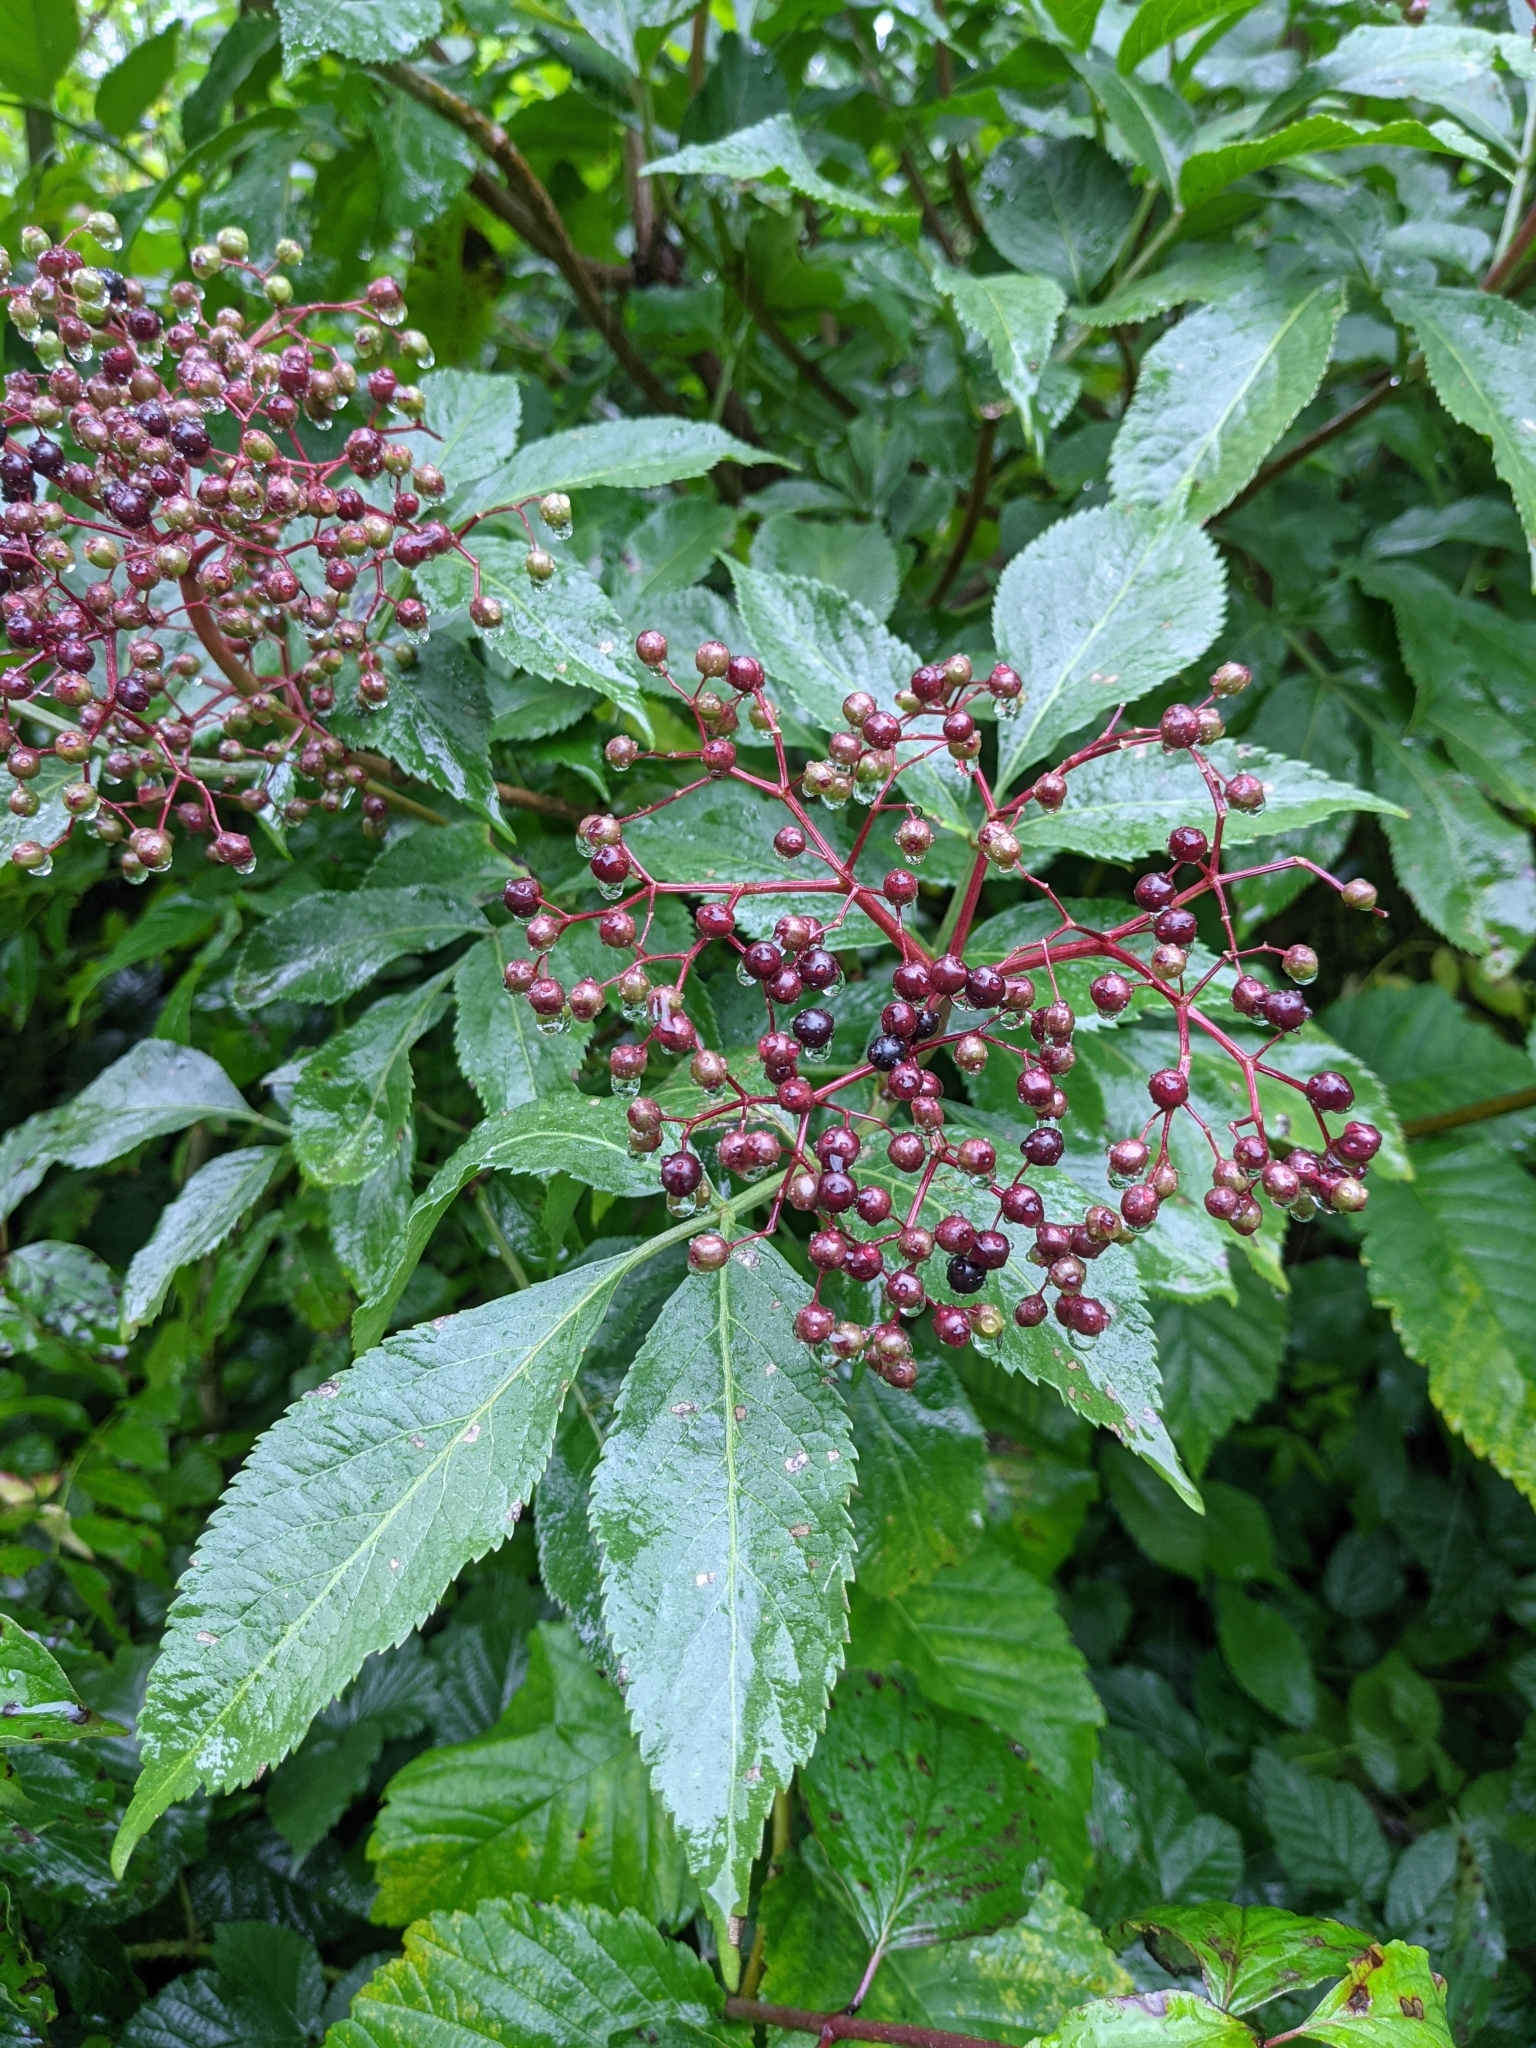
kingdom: Plantae
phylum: Tracheophyta
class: Magnoliopsida
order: Dipsacales
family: Viburnaceae
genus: Sambucus
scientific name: Sambucus nigra
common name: Elder
